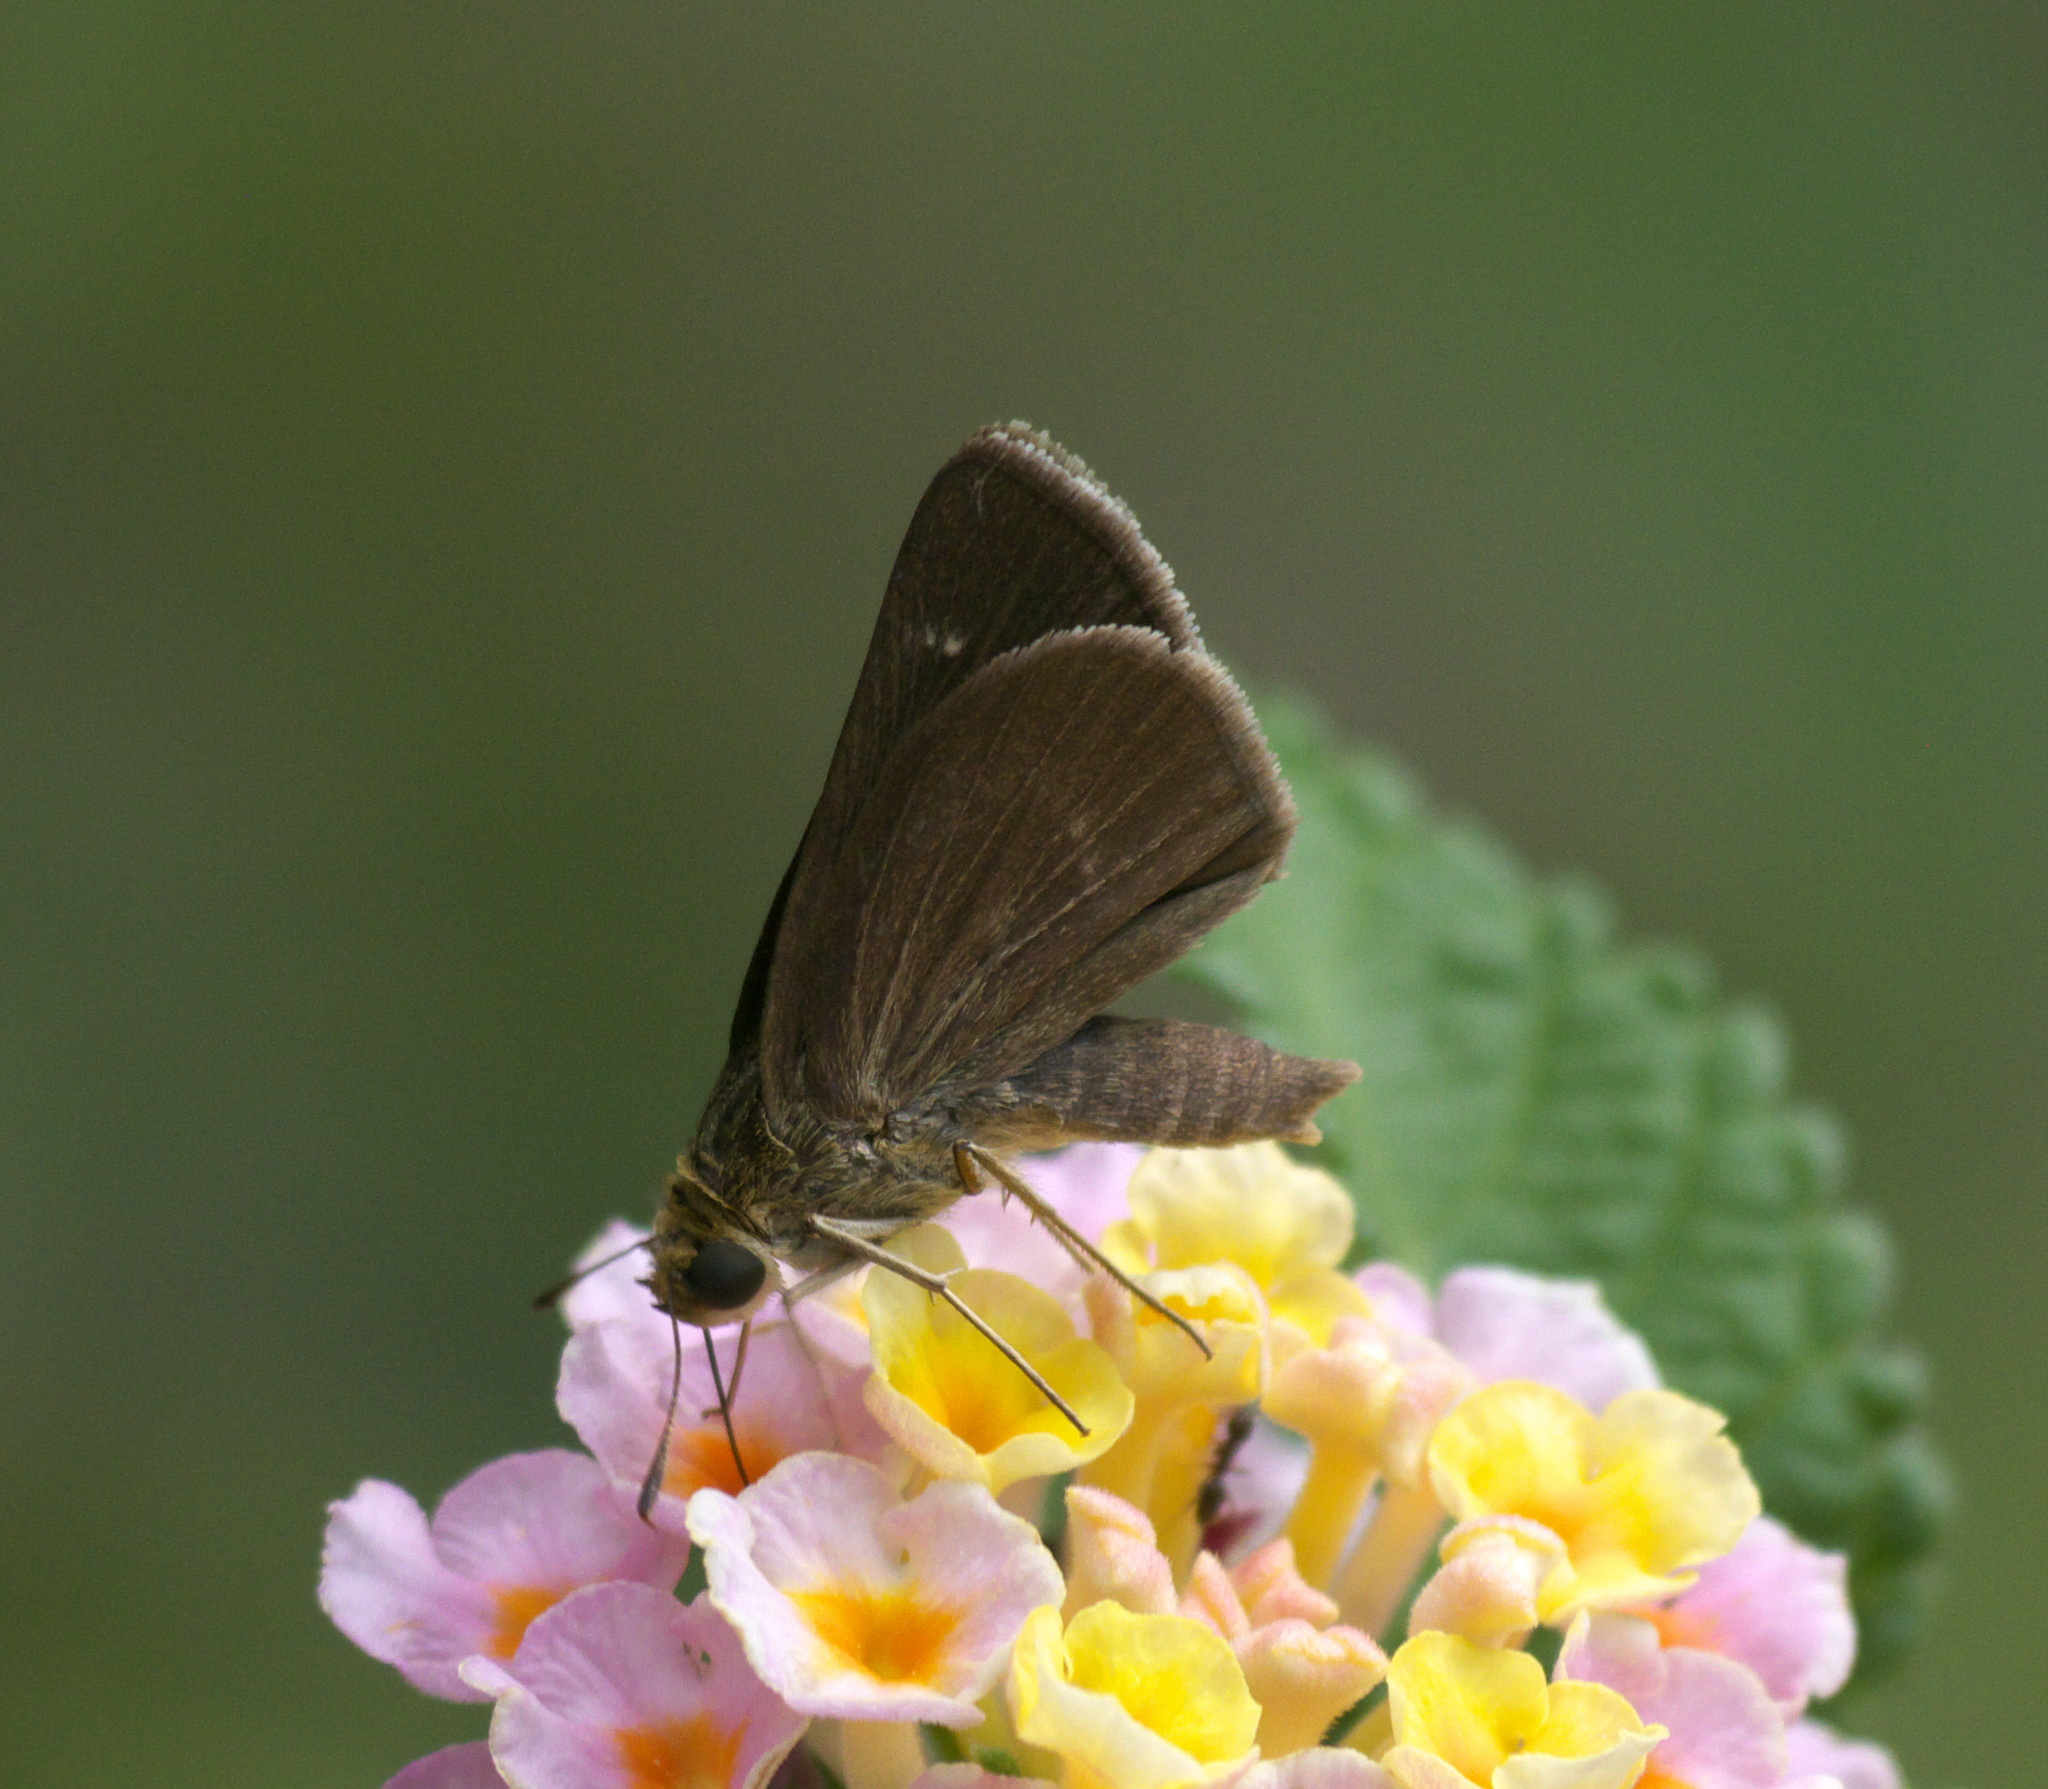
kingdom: Animalia
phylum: Arthropoda
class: Insecta
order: Lepidoptera
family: Hesperiidae
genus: Euphyes
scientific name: Euphyes vestris
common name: Dun skipper
